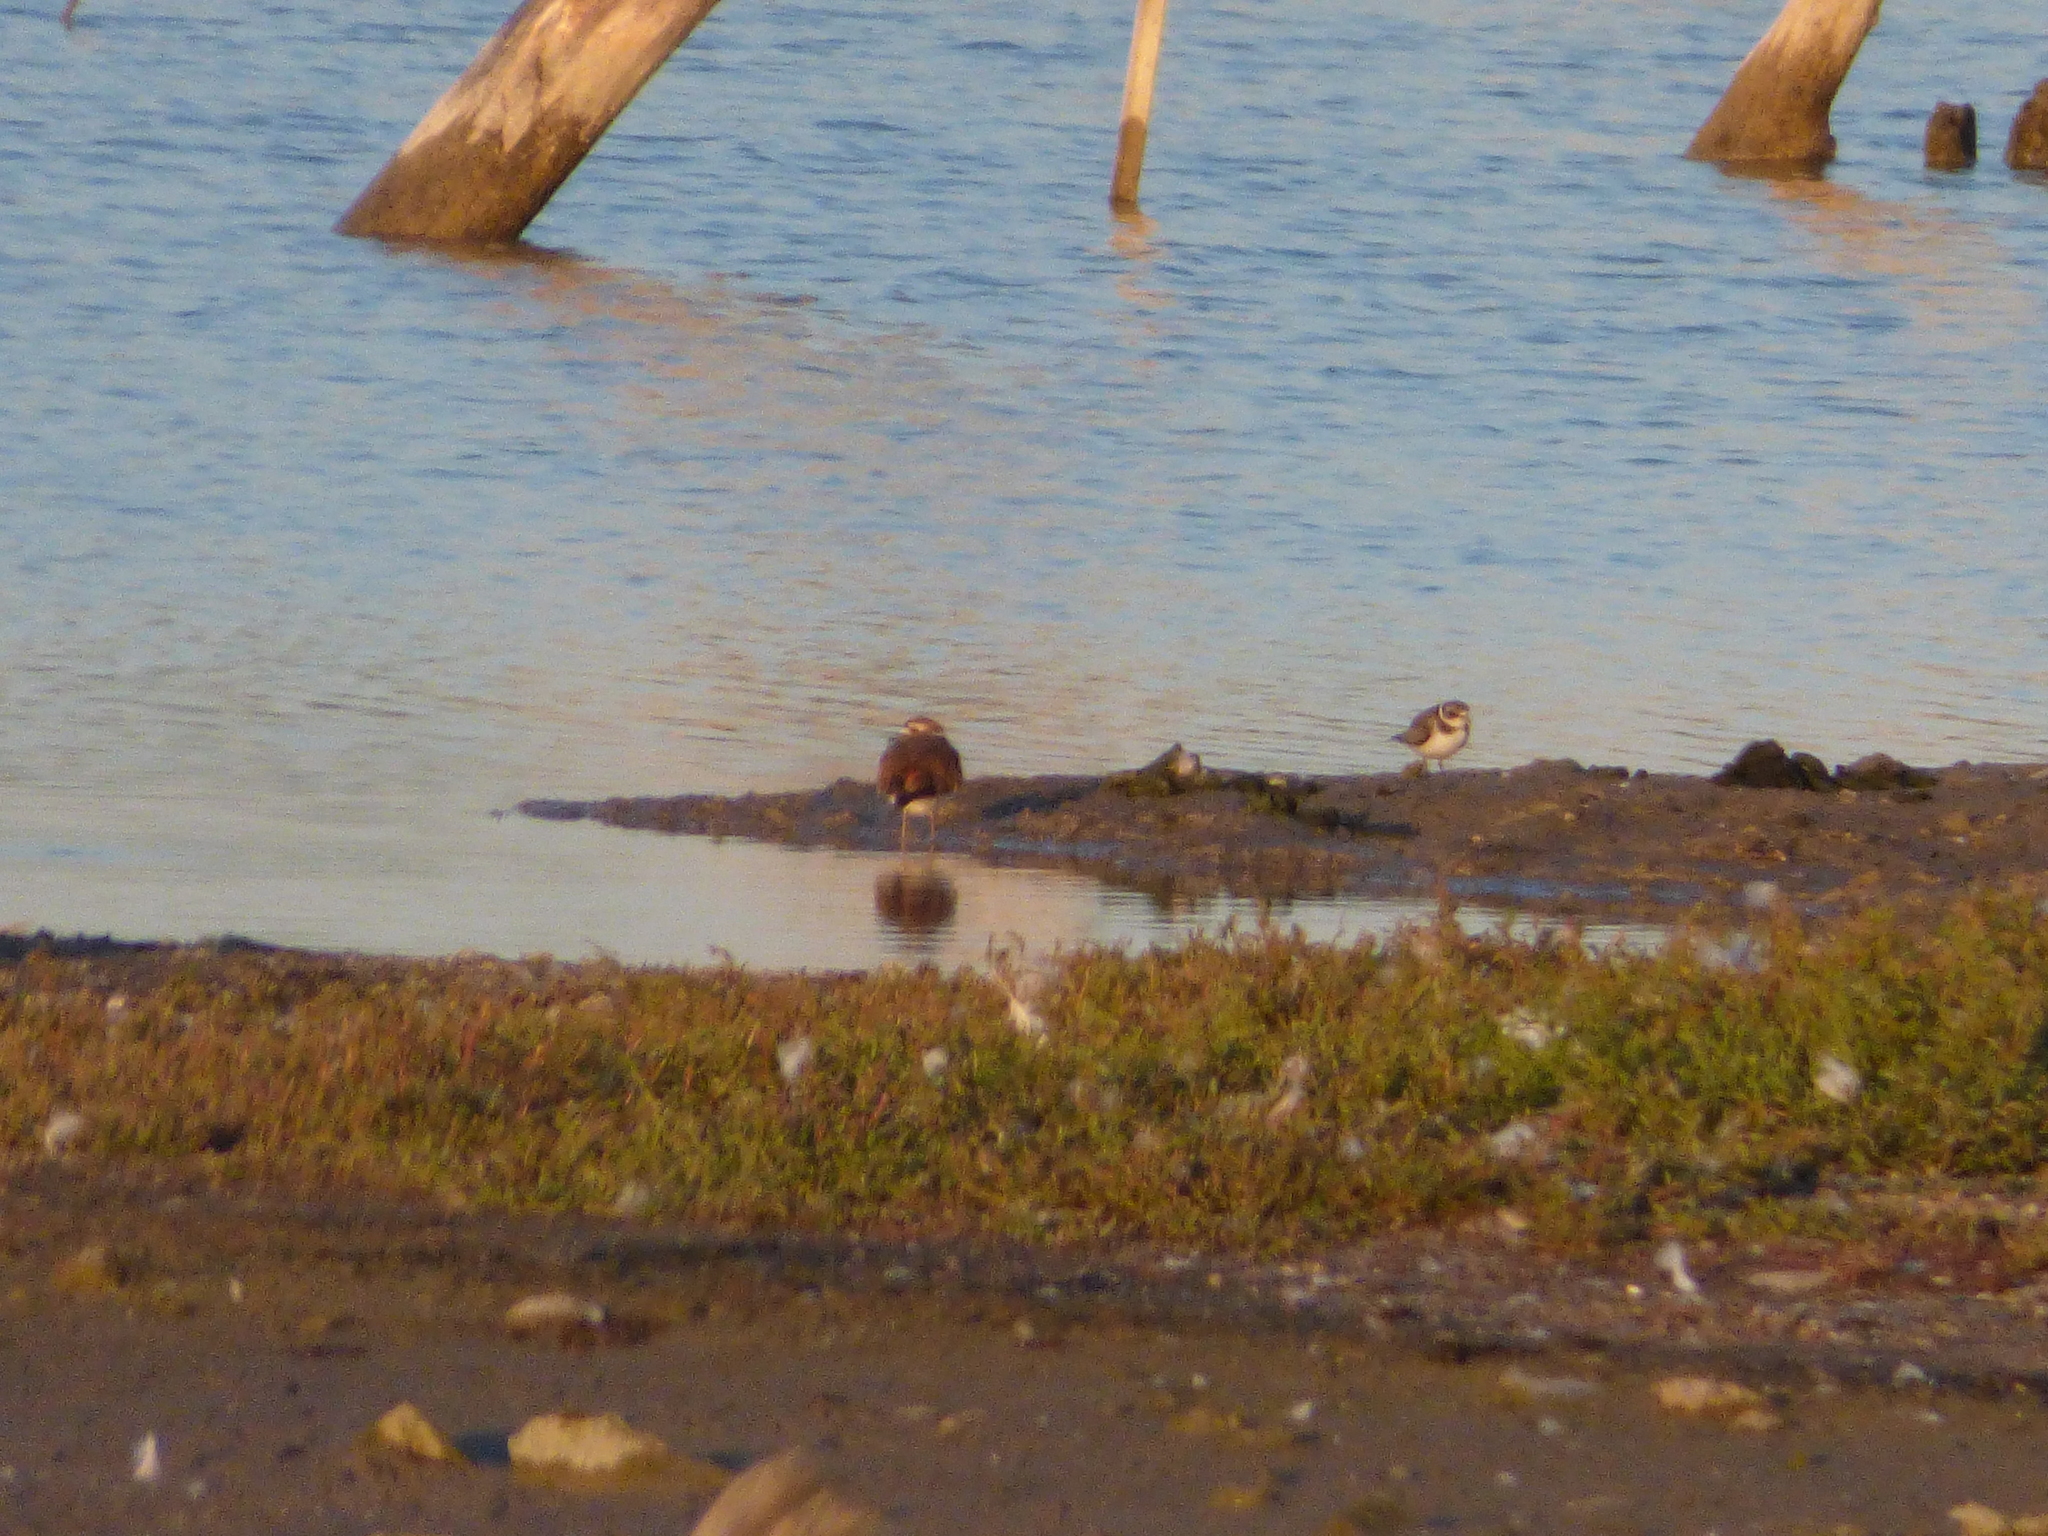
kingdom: Animalia
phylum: Chordata
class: Aves
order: Charadriiformes
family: Charadriidae
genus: Charadrius
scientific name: Charadrius vociferus
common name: Killdeer
